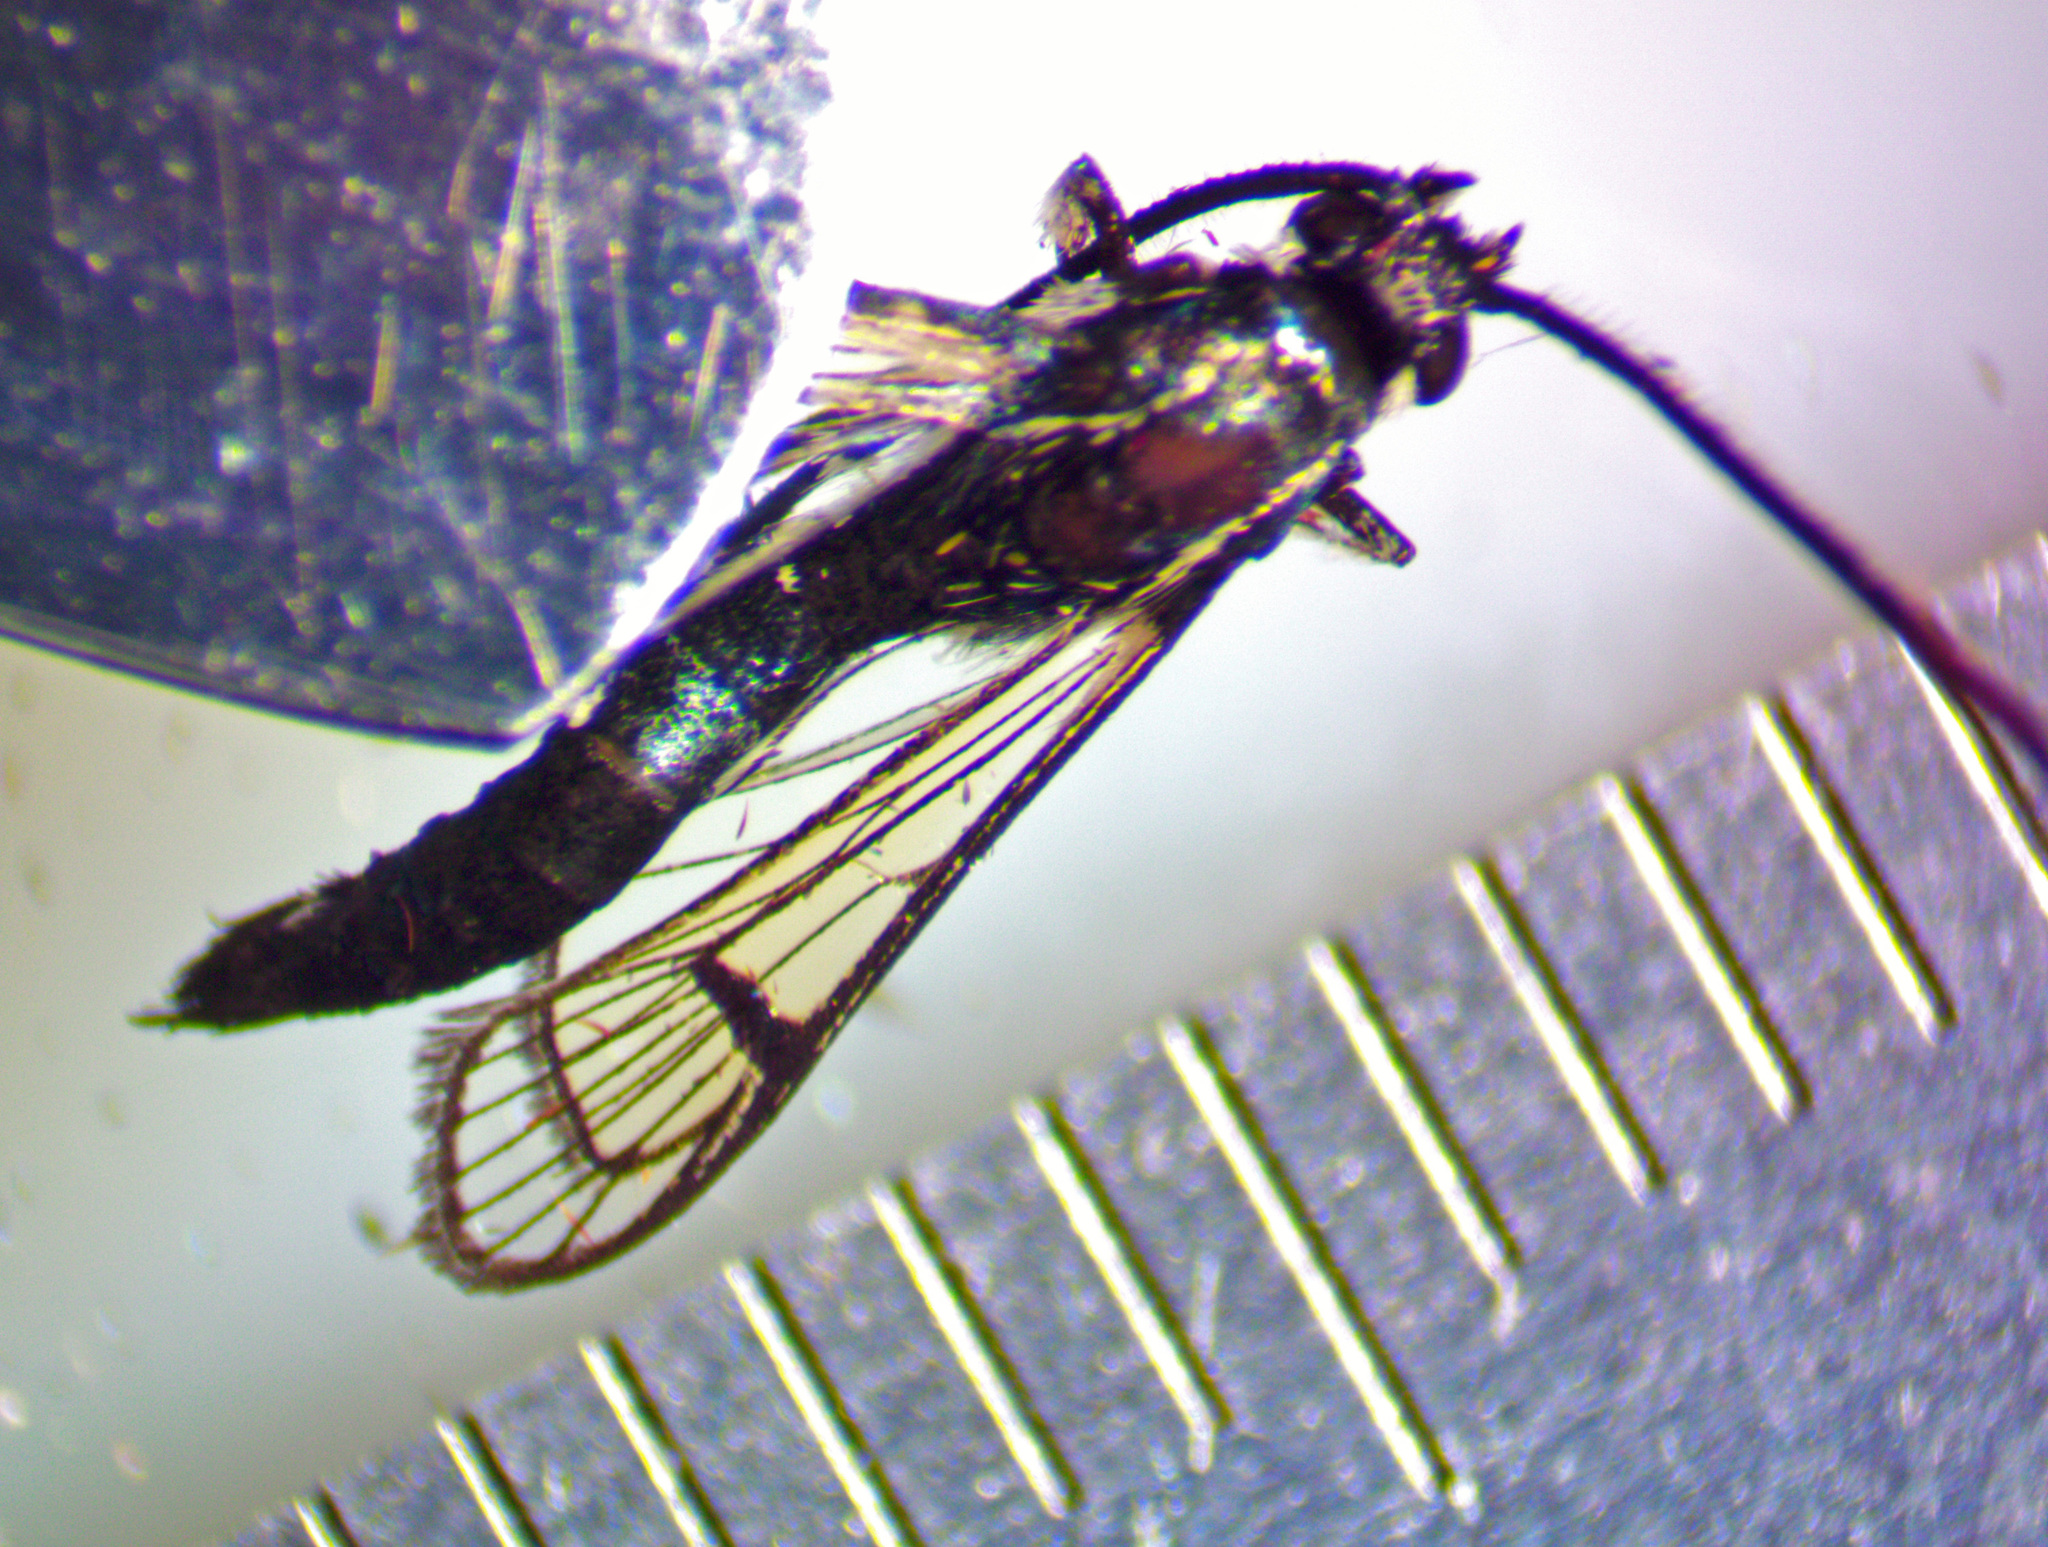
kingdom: Animalia
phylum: Arthropoda
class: Insecta
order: Lepidoptera
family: Sesiidae
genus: Synanthedon
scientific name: Synanthedon exitiosa
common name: Peachtree borer moth
